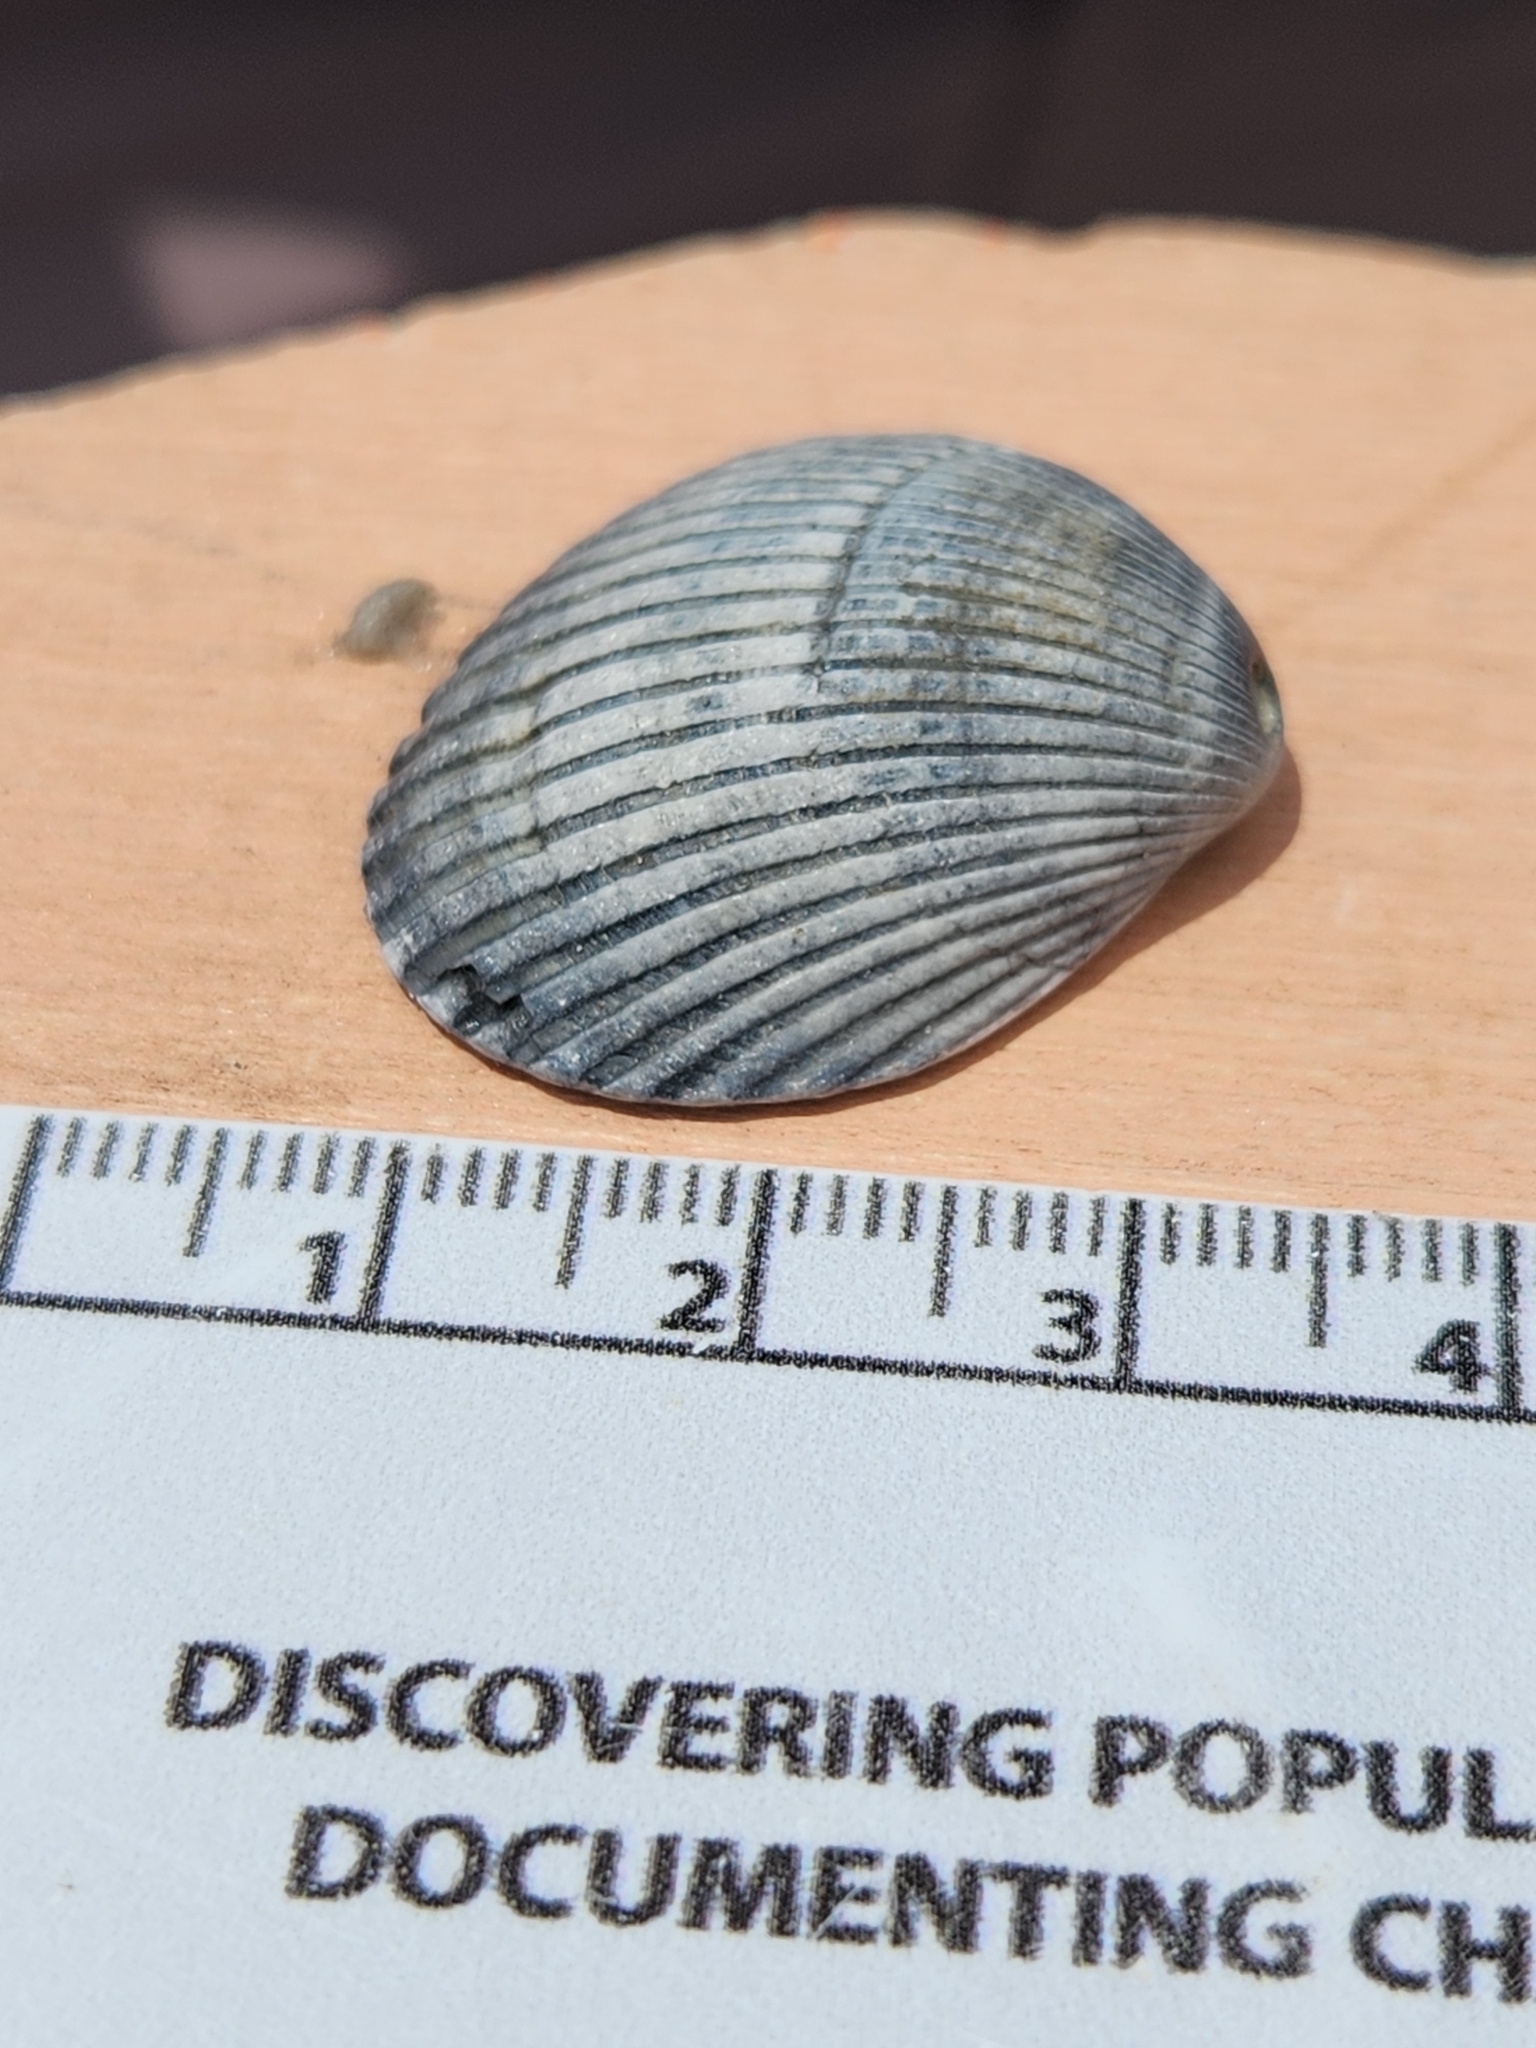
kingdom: Animalia
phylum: Mollusca
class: Bivalvia
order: Arcida
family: Arcidae
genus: Lunarca
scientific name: Lunarca ovalis
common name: Blood ark
